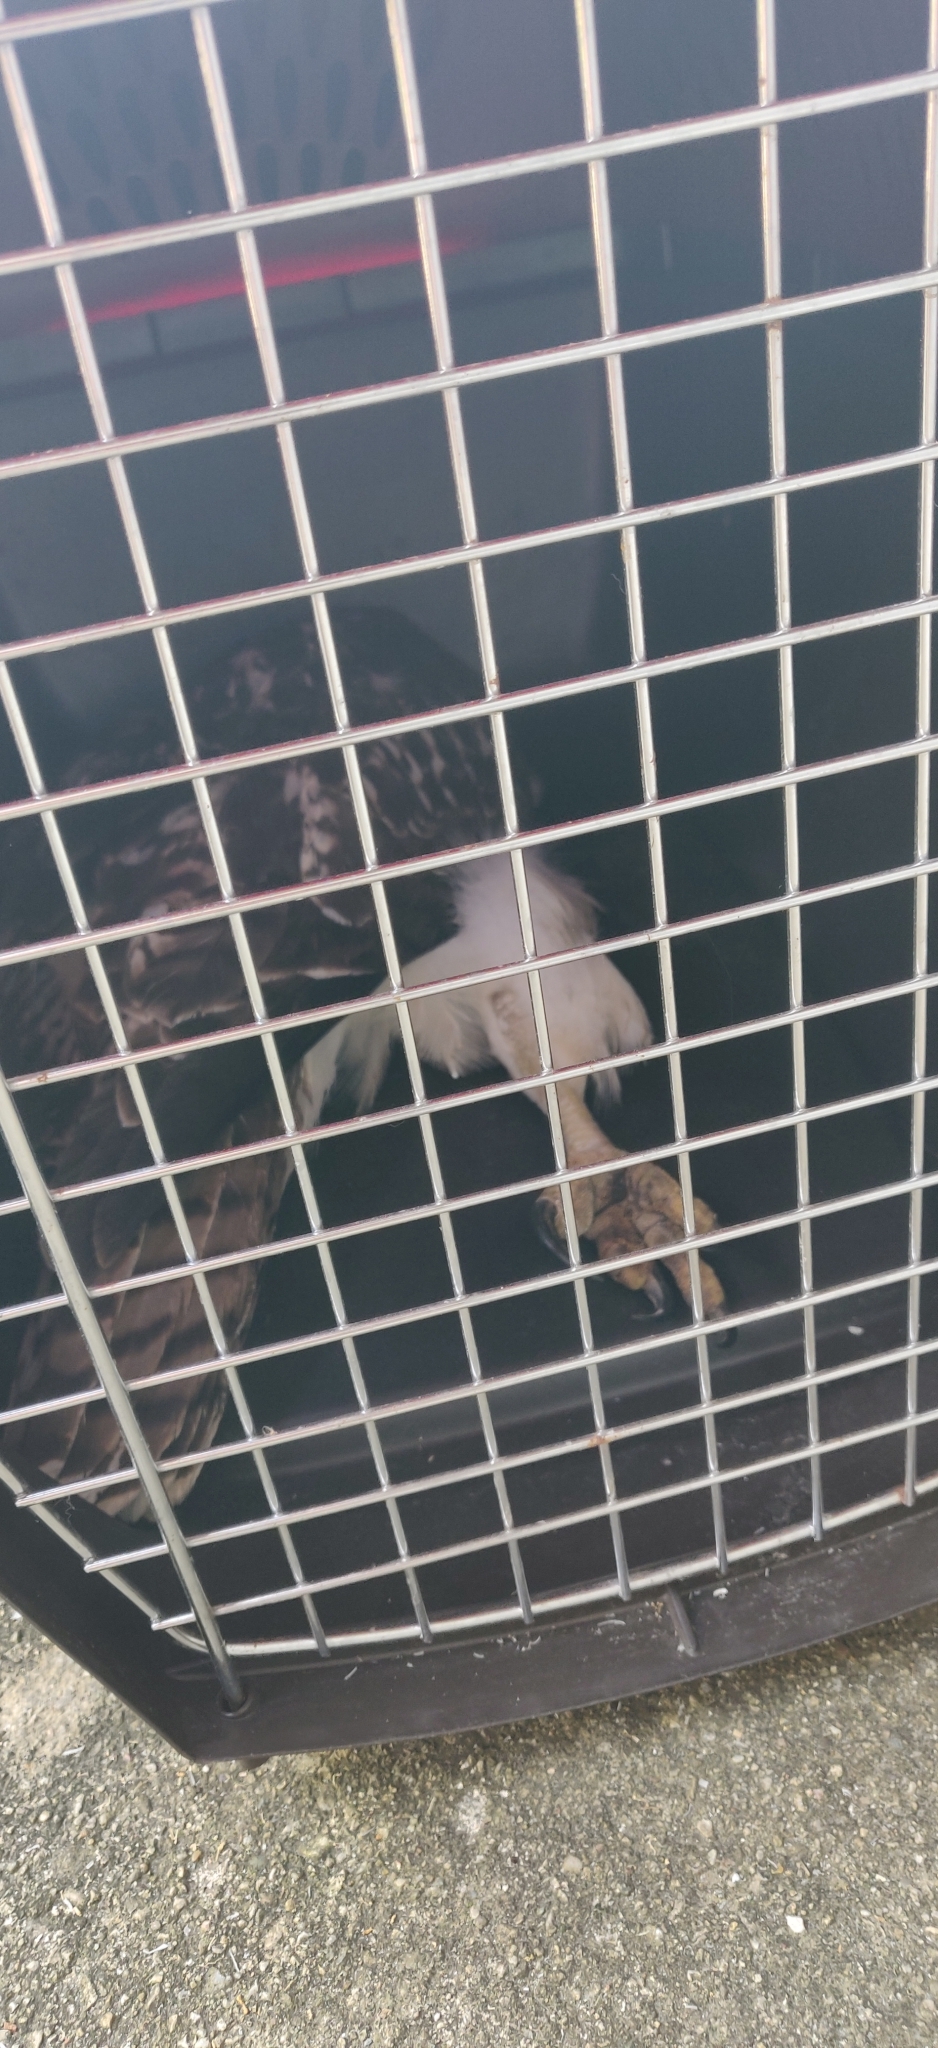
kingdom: Animalia
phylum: Chordata
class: Aves
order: Accipitriformes
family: Accipitridae
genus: Buteo
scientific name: Buteo jamaicensis
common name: Red-tailed hawk
